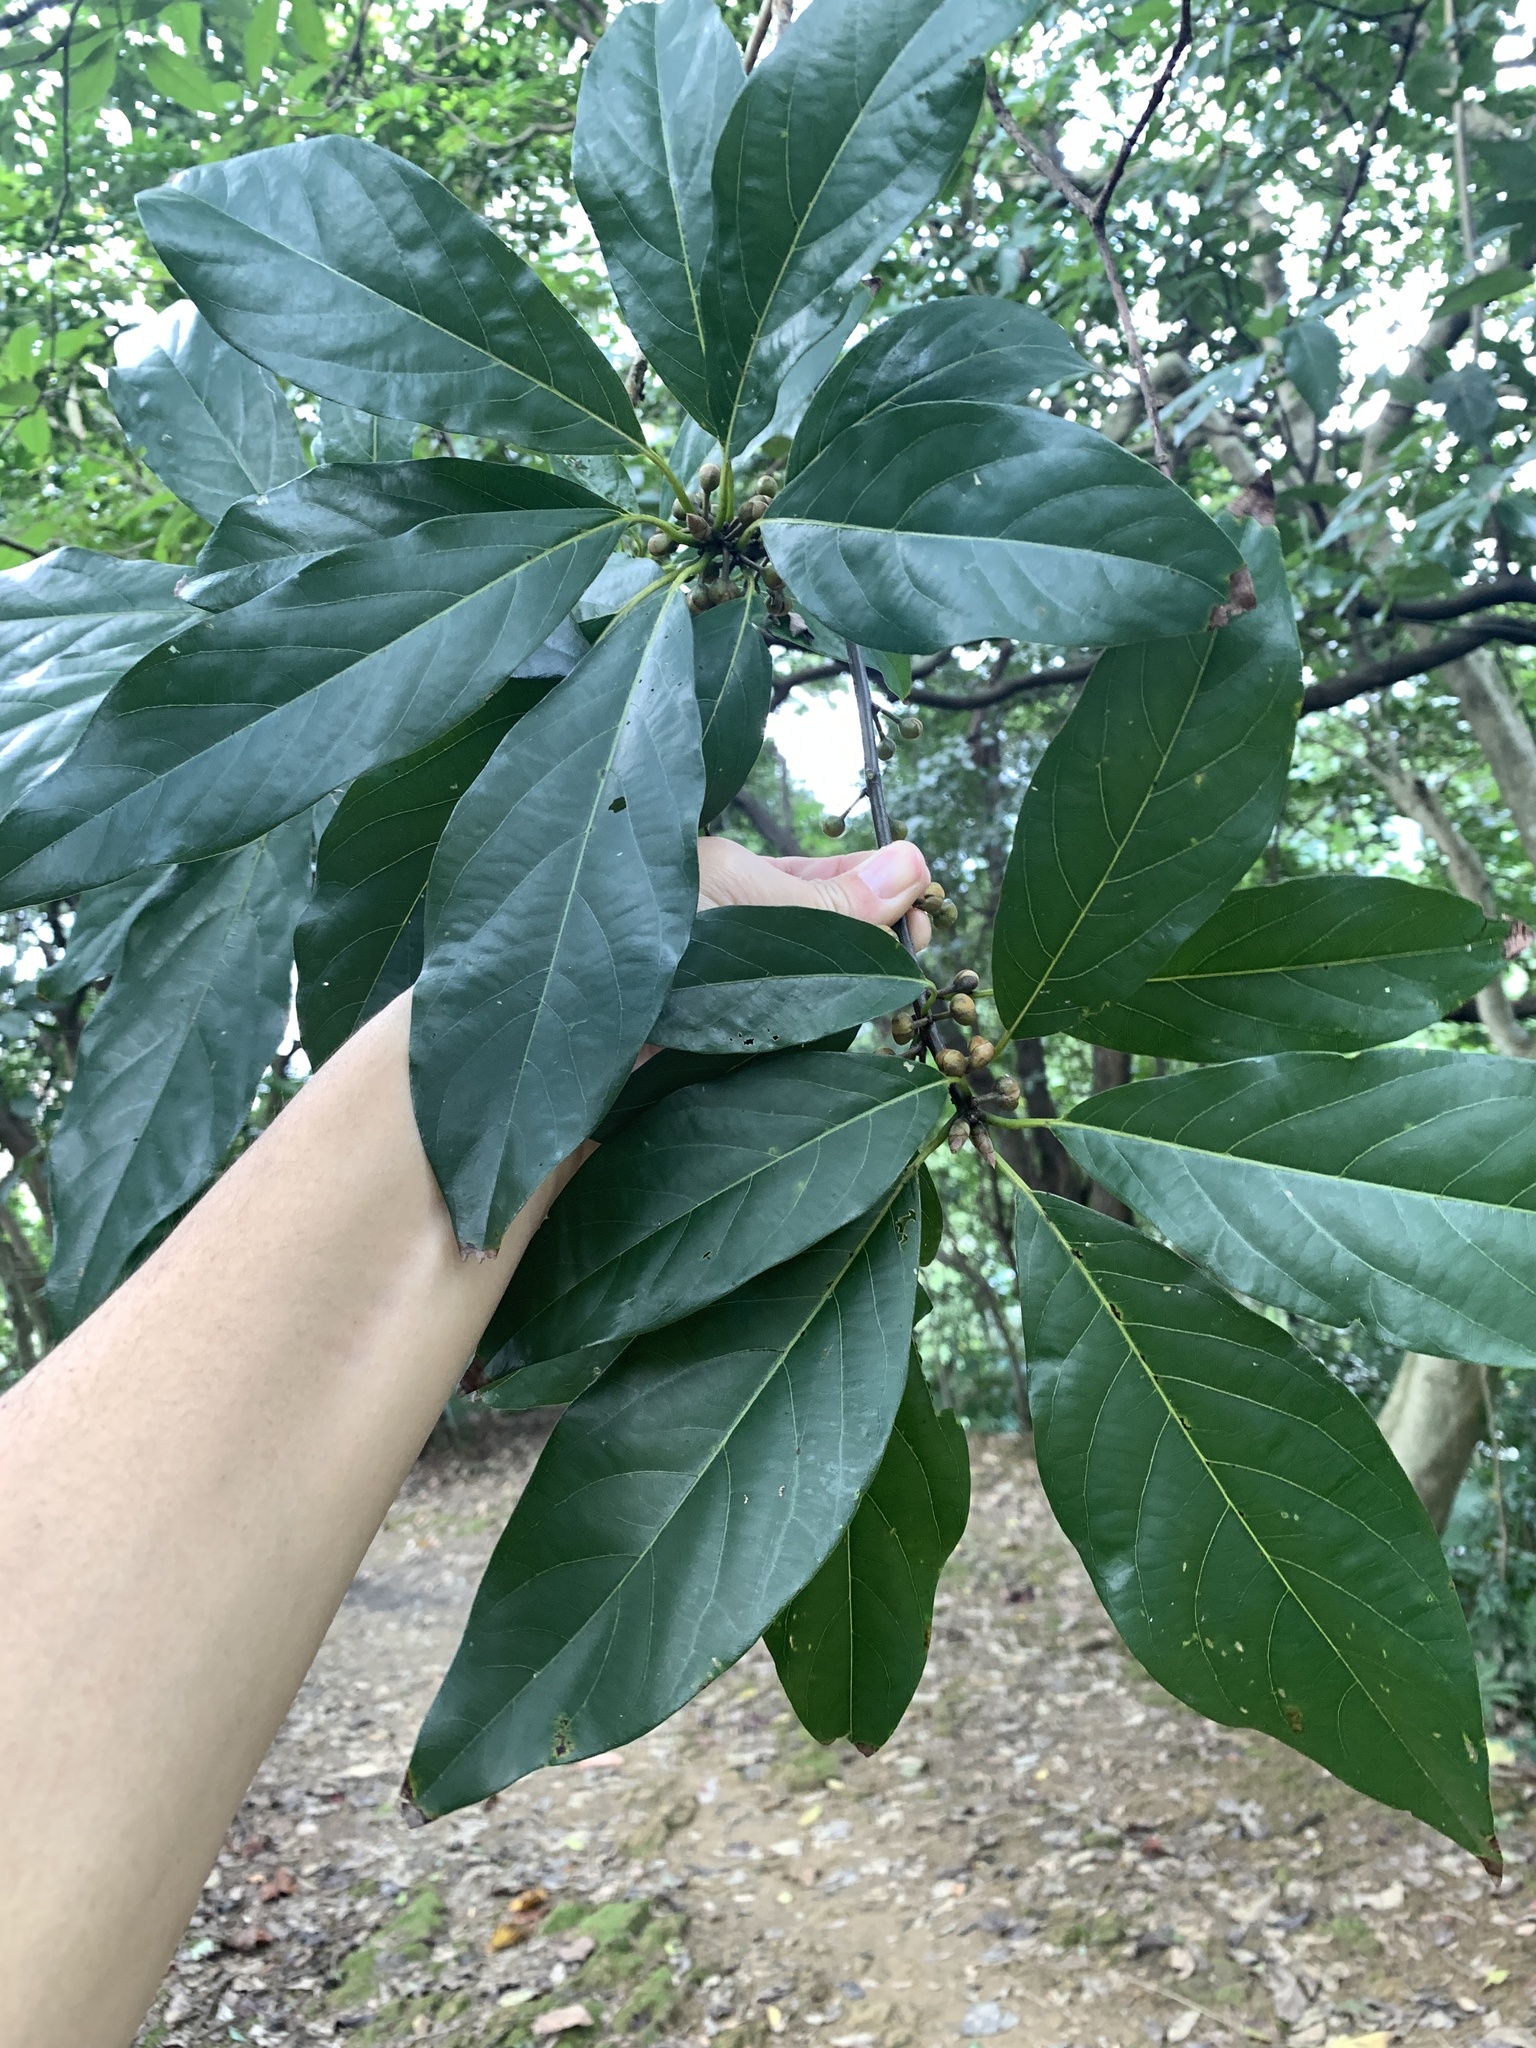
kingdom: Plantae
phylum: Tracheophyta
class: Magnoliopsida
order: Laurales
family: Lauraceae
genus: Lindera
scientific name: Lindera megaphylla
